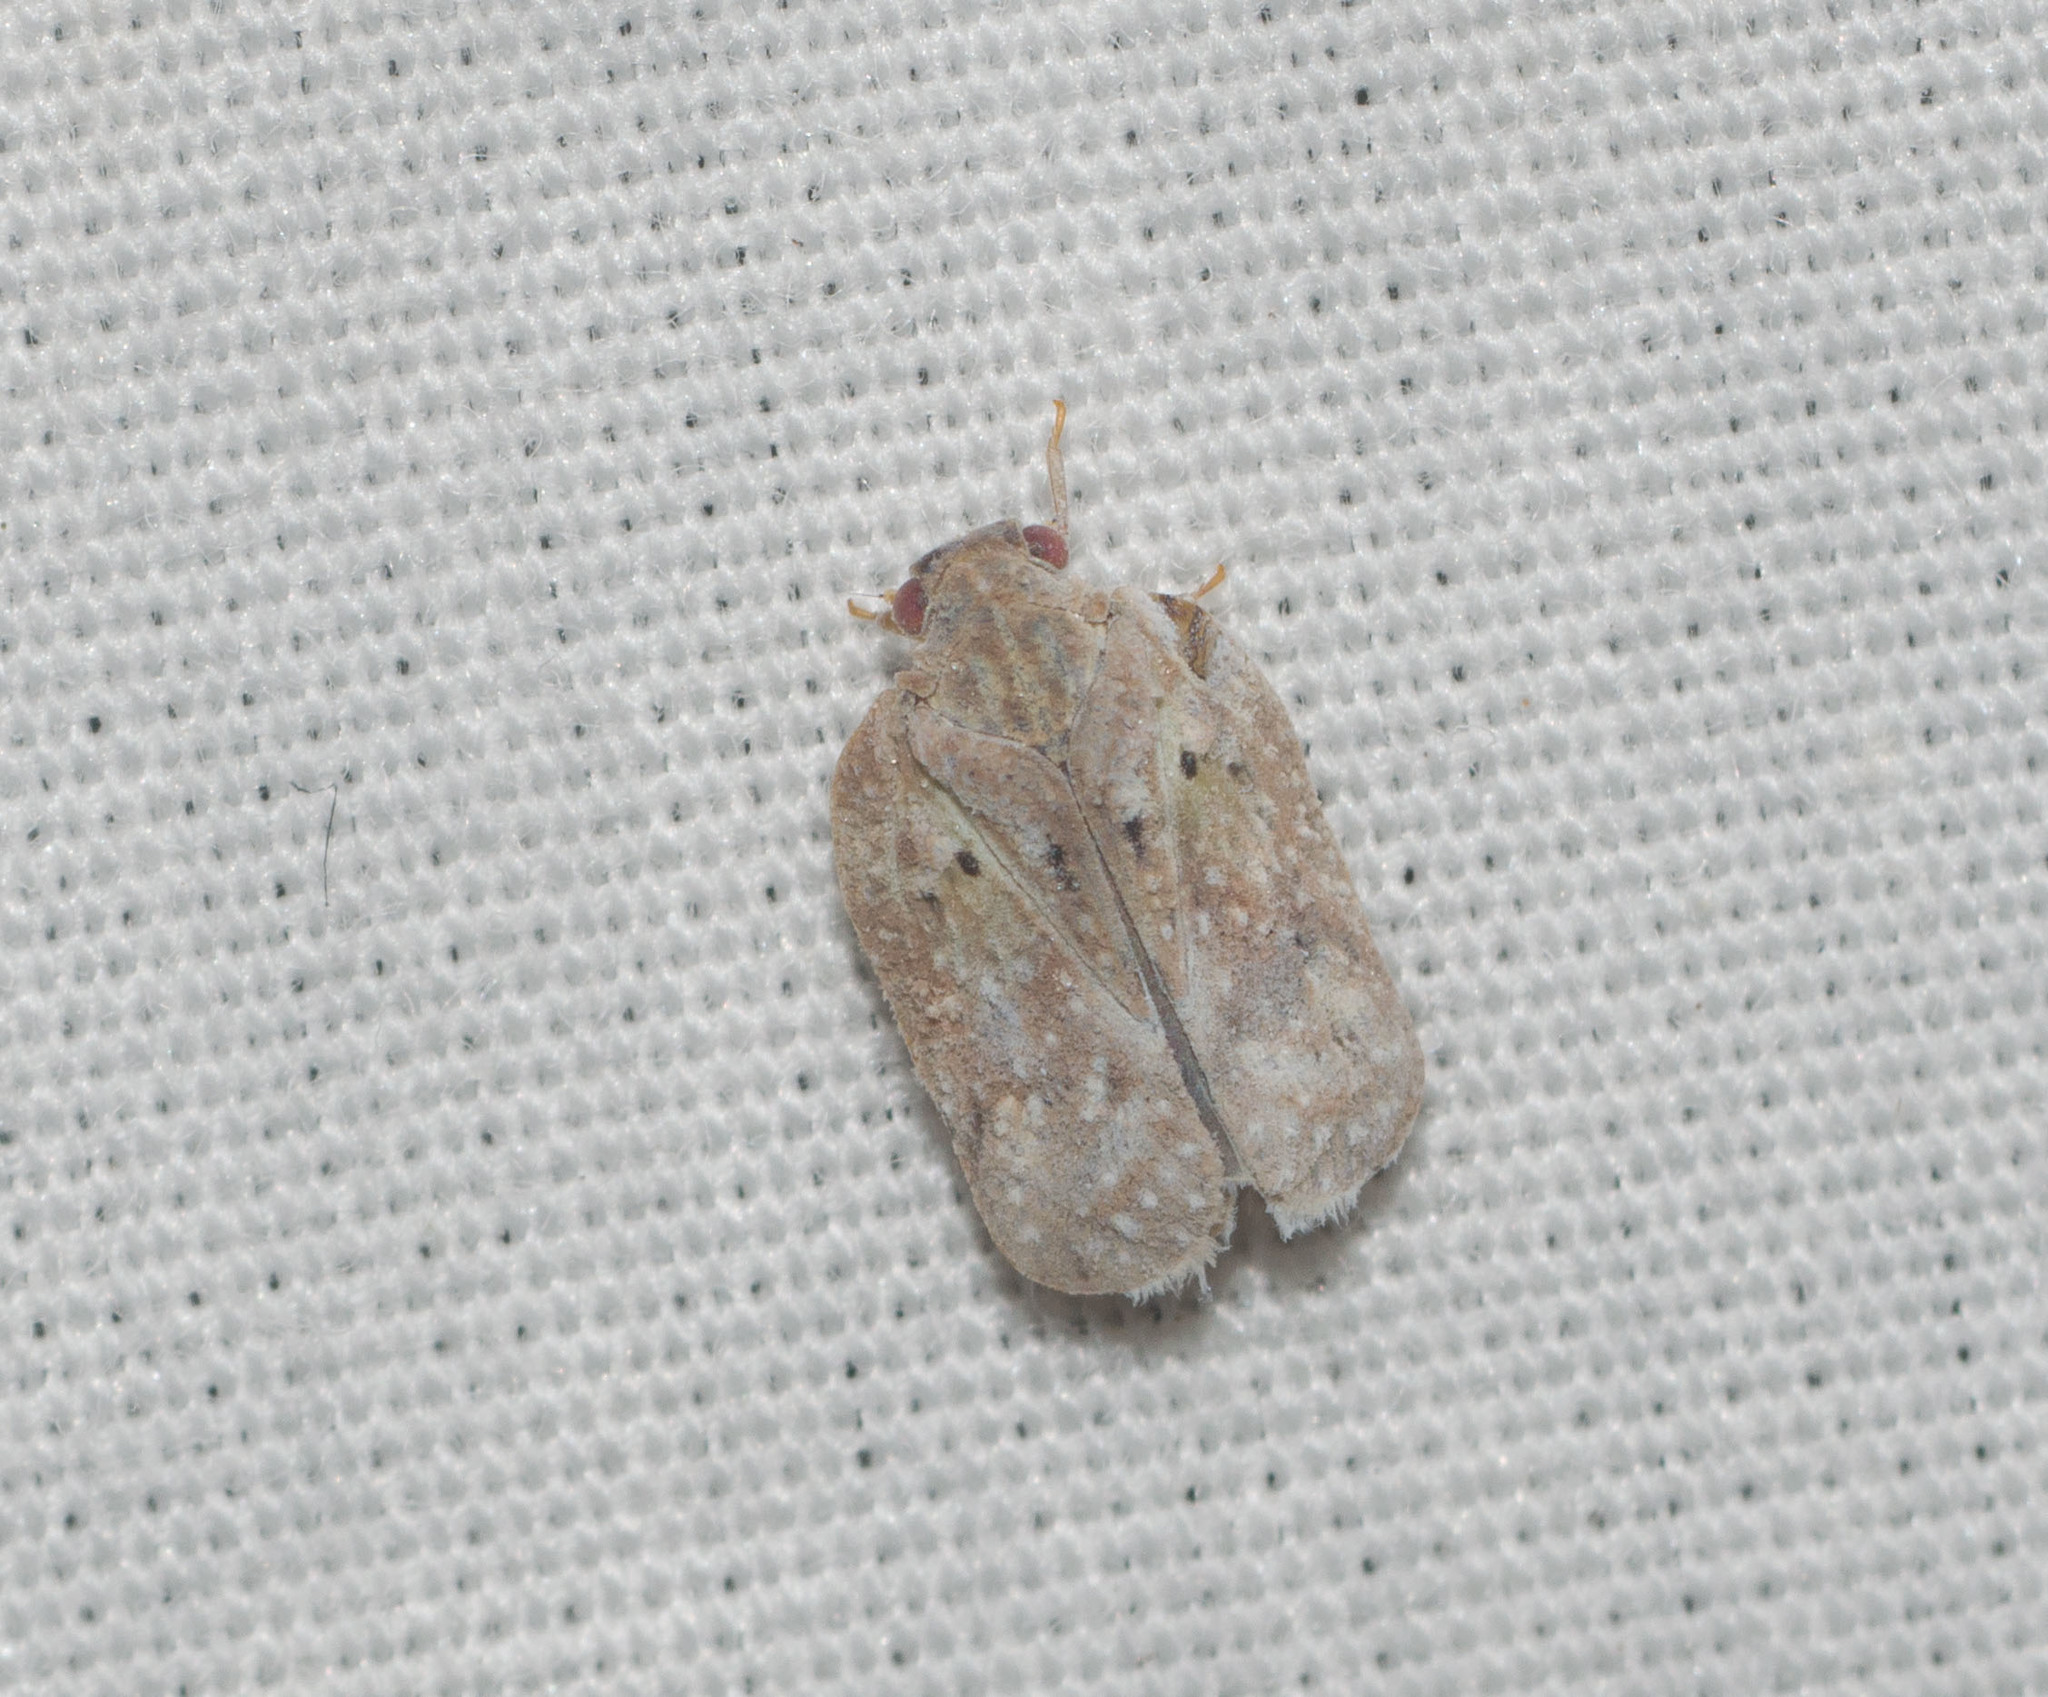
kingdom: Animalia
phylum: Arthropoda
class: Insecta
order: Hemiptera
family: Flatidae
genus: Melormenis
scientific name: Melormenis basalis
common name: Puerto rican planthopper
